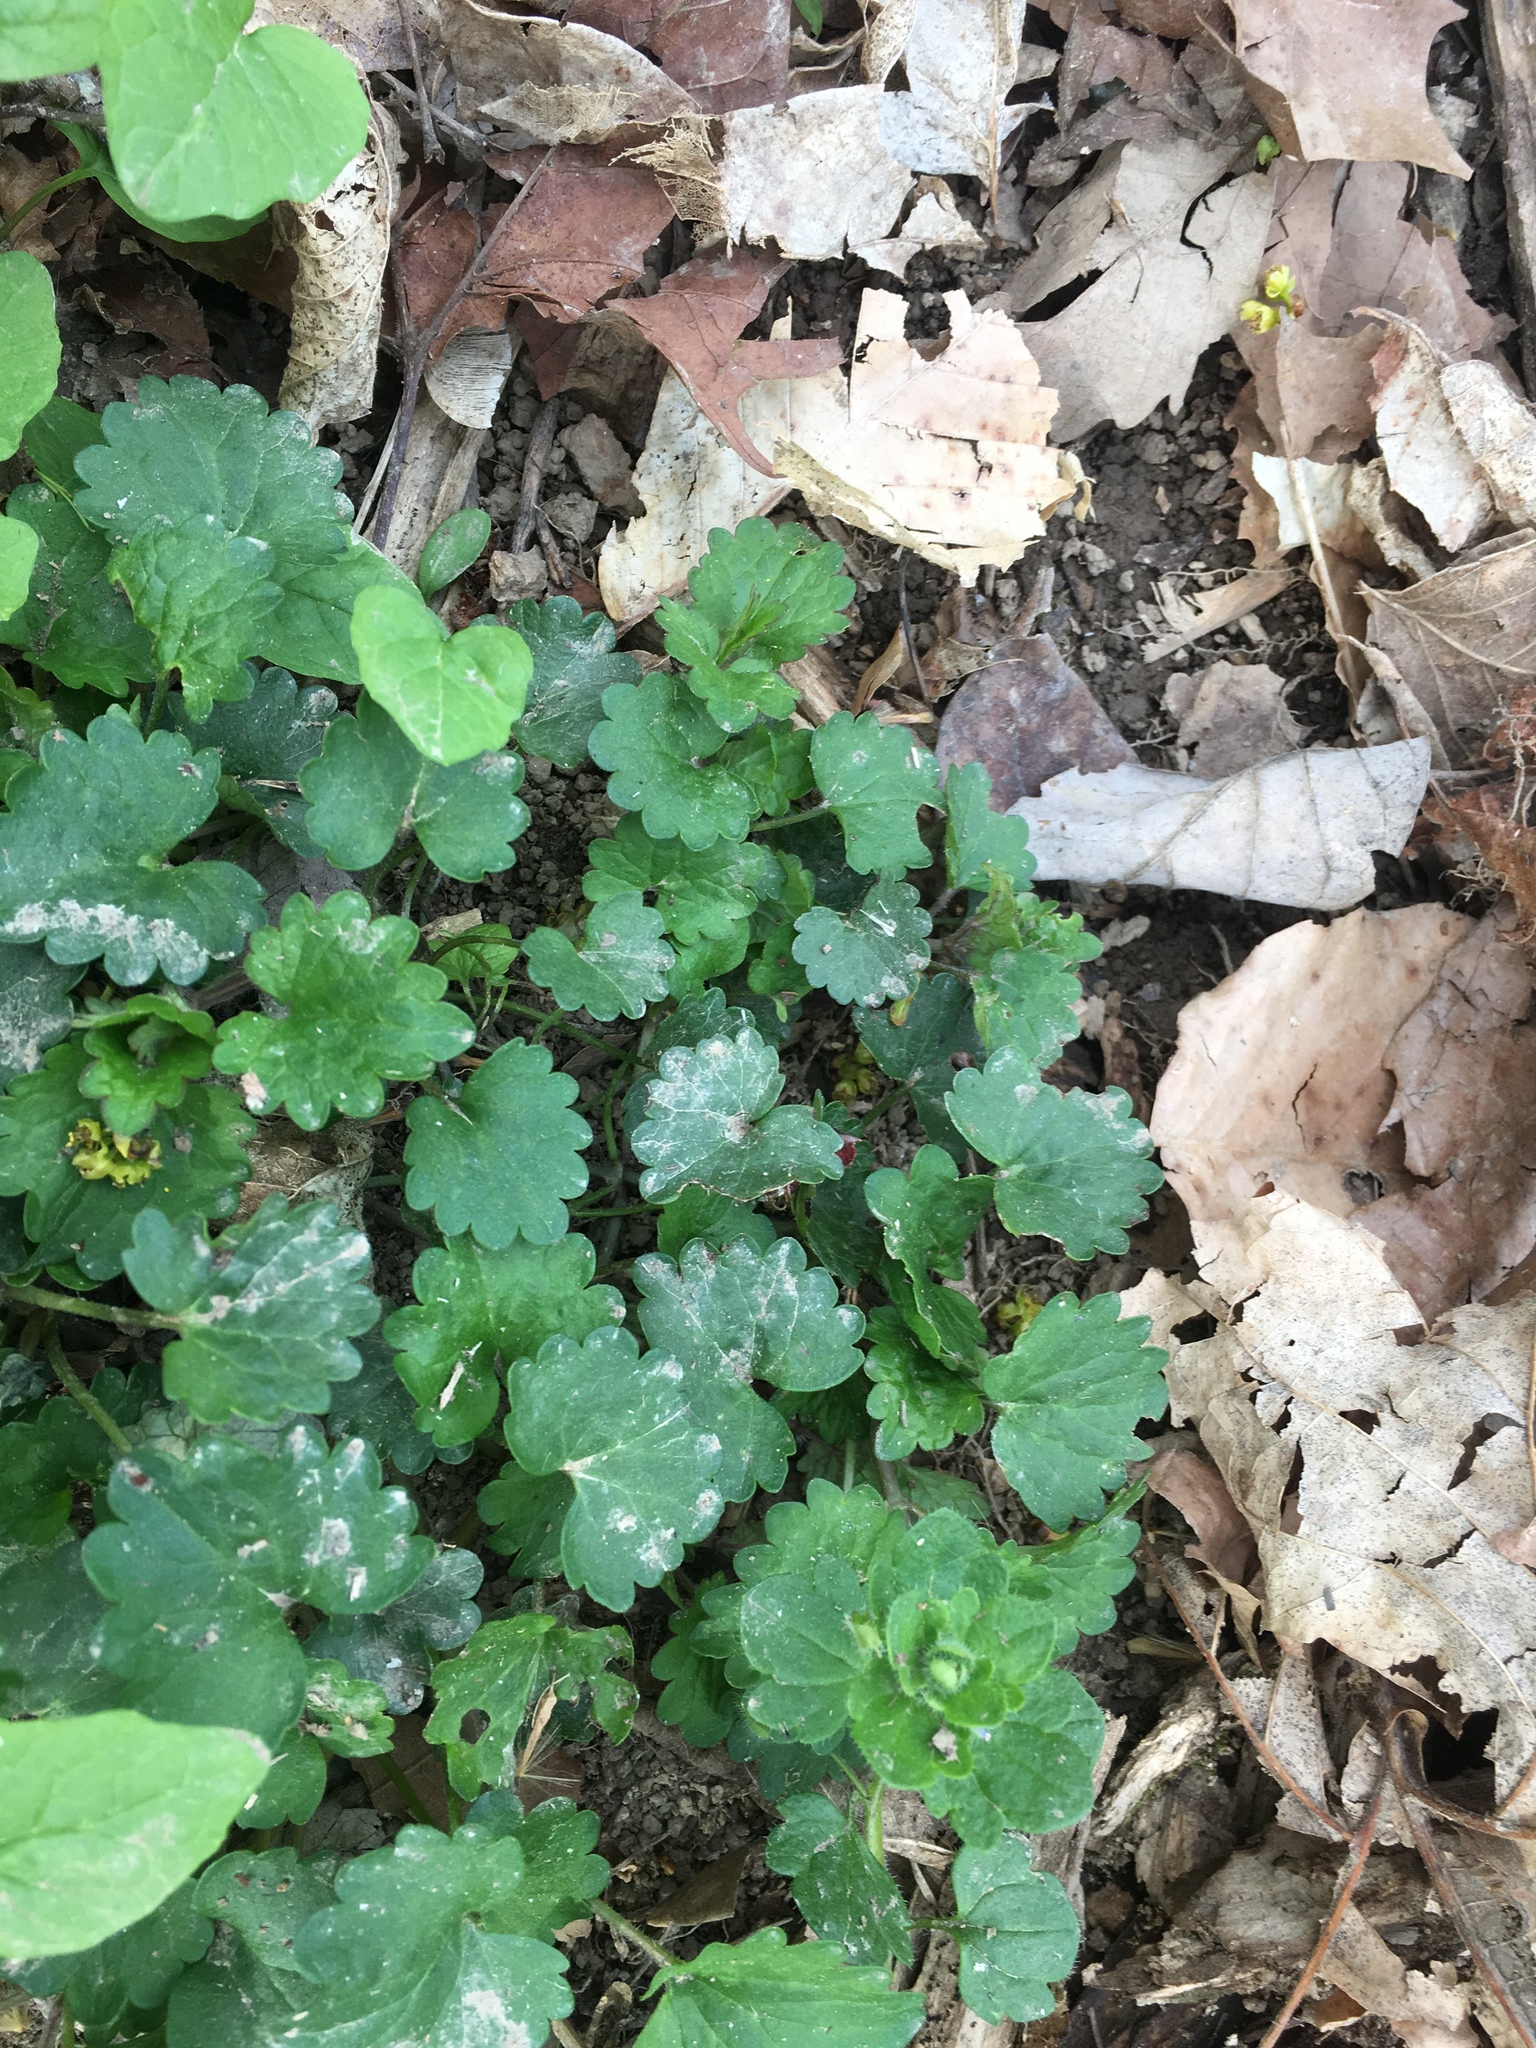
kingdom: Plantae
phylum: Tracheophyta
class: Magnoliopsida
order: Lamiales
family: Lamiaceae
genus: Glechoma
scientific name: Glechoma hederacea
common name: Ground ivy
